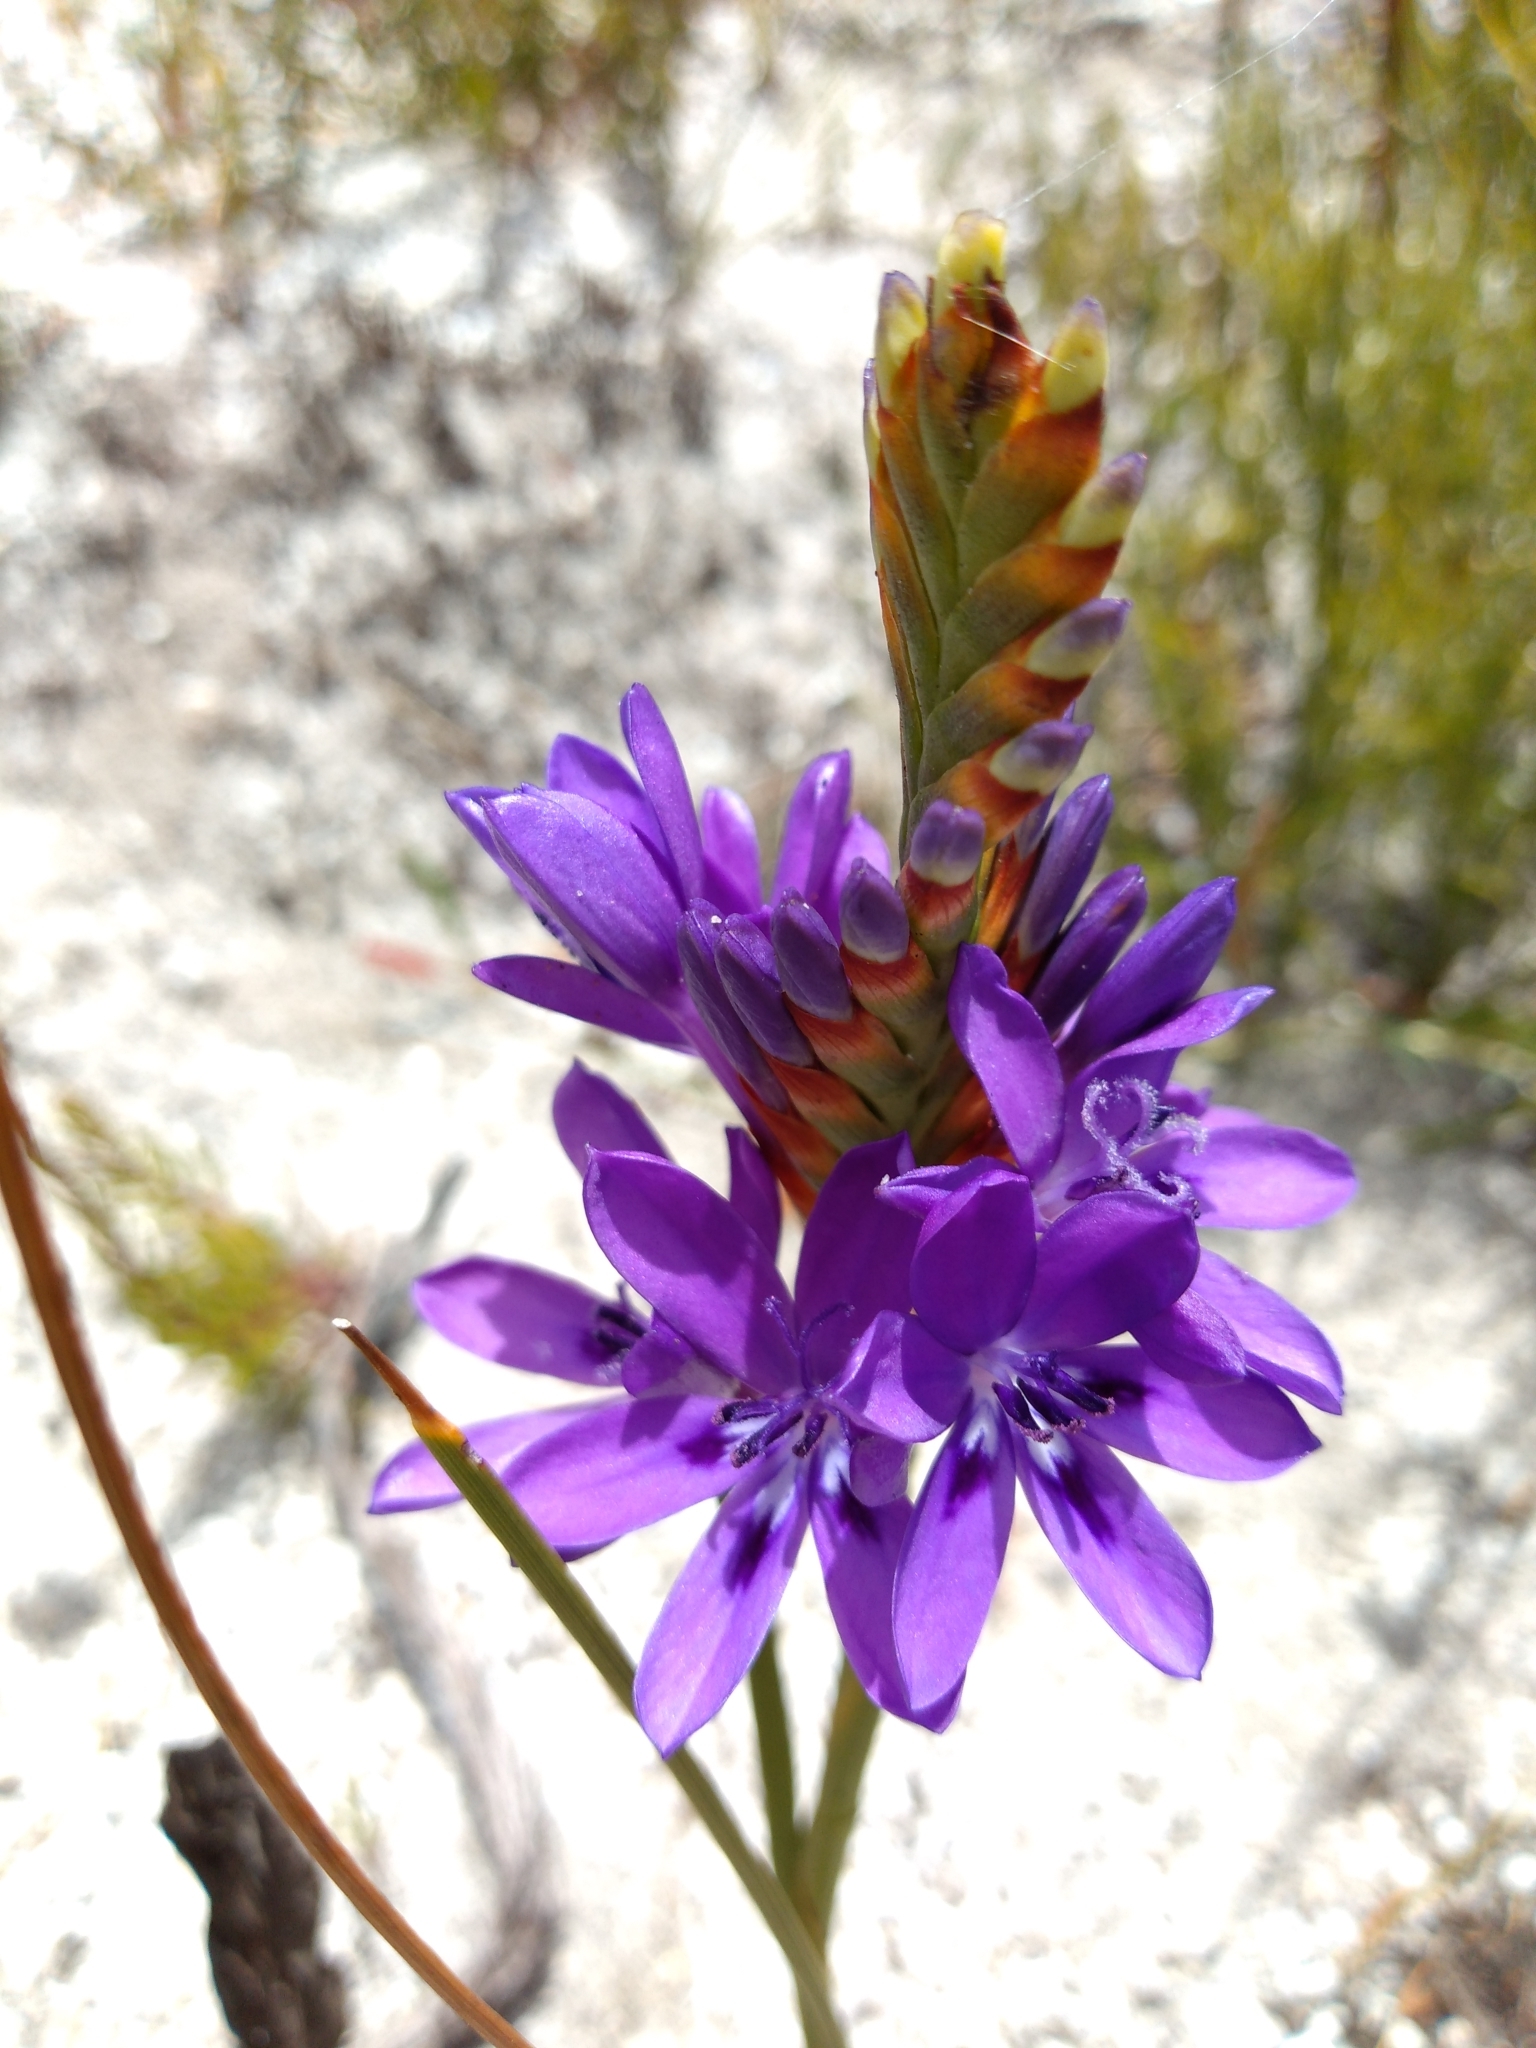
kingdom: Plantae
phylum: Tracheophyta
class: Liliopsida
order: Asparagales
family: Iridaceae
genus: Thereianthus
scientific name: Thereianthus spicatus
